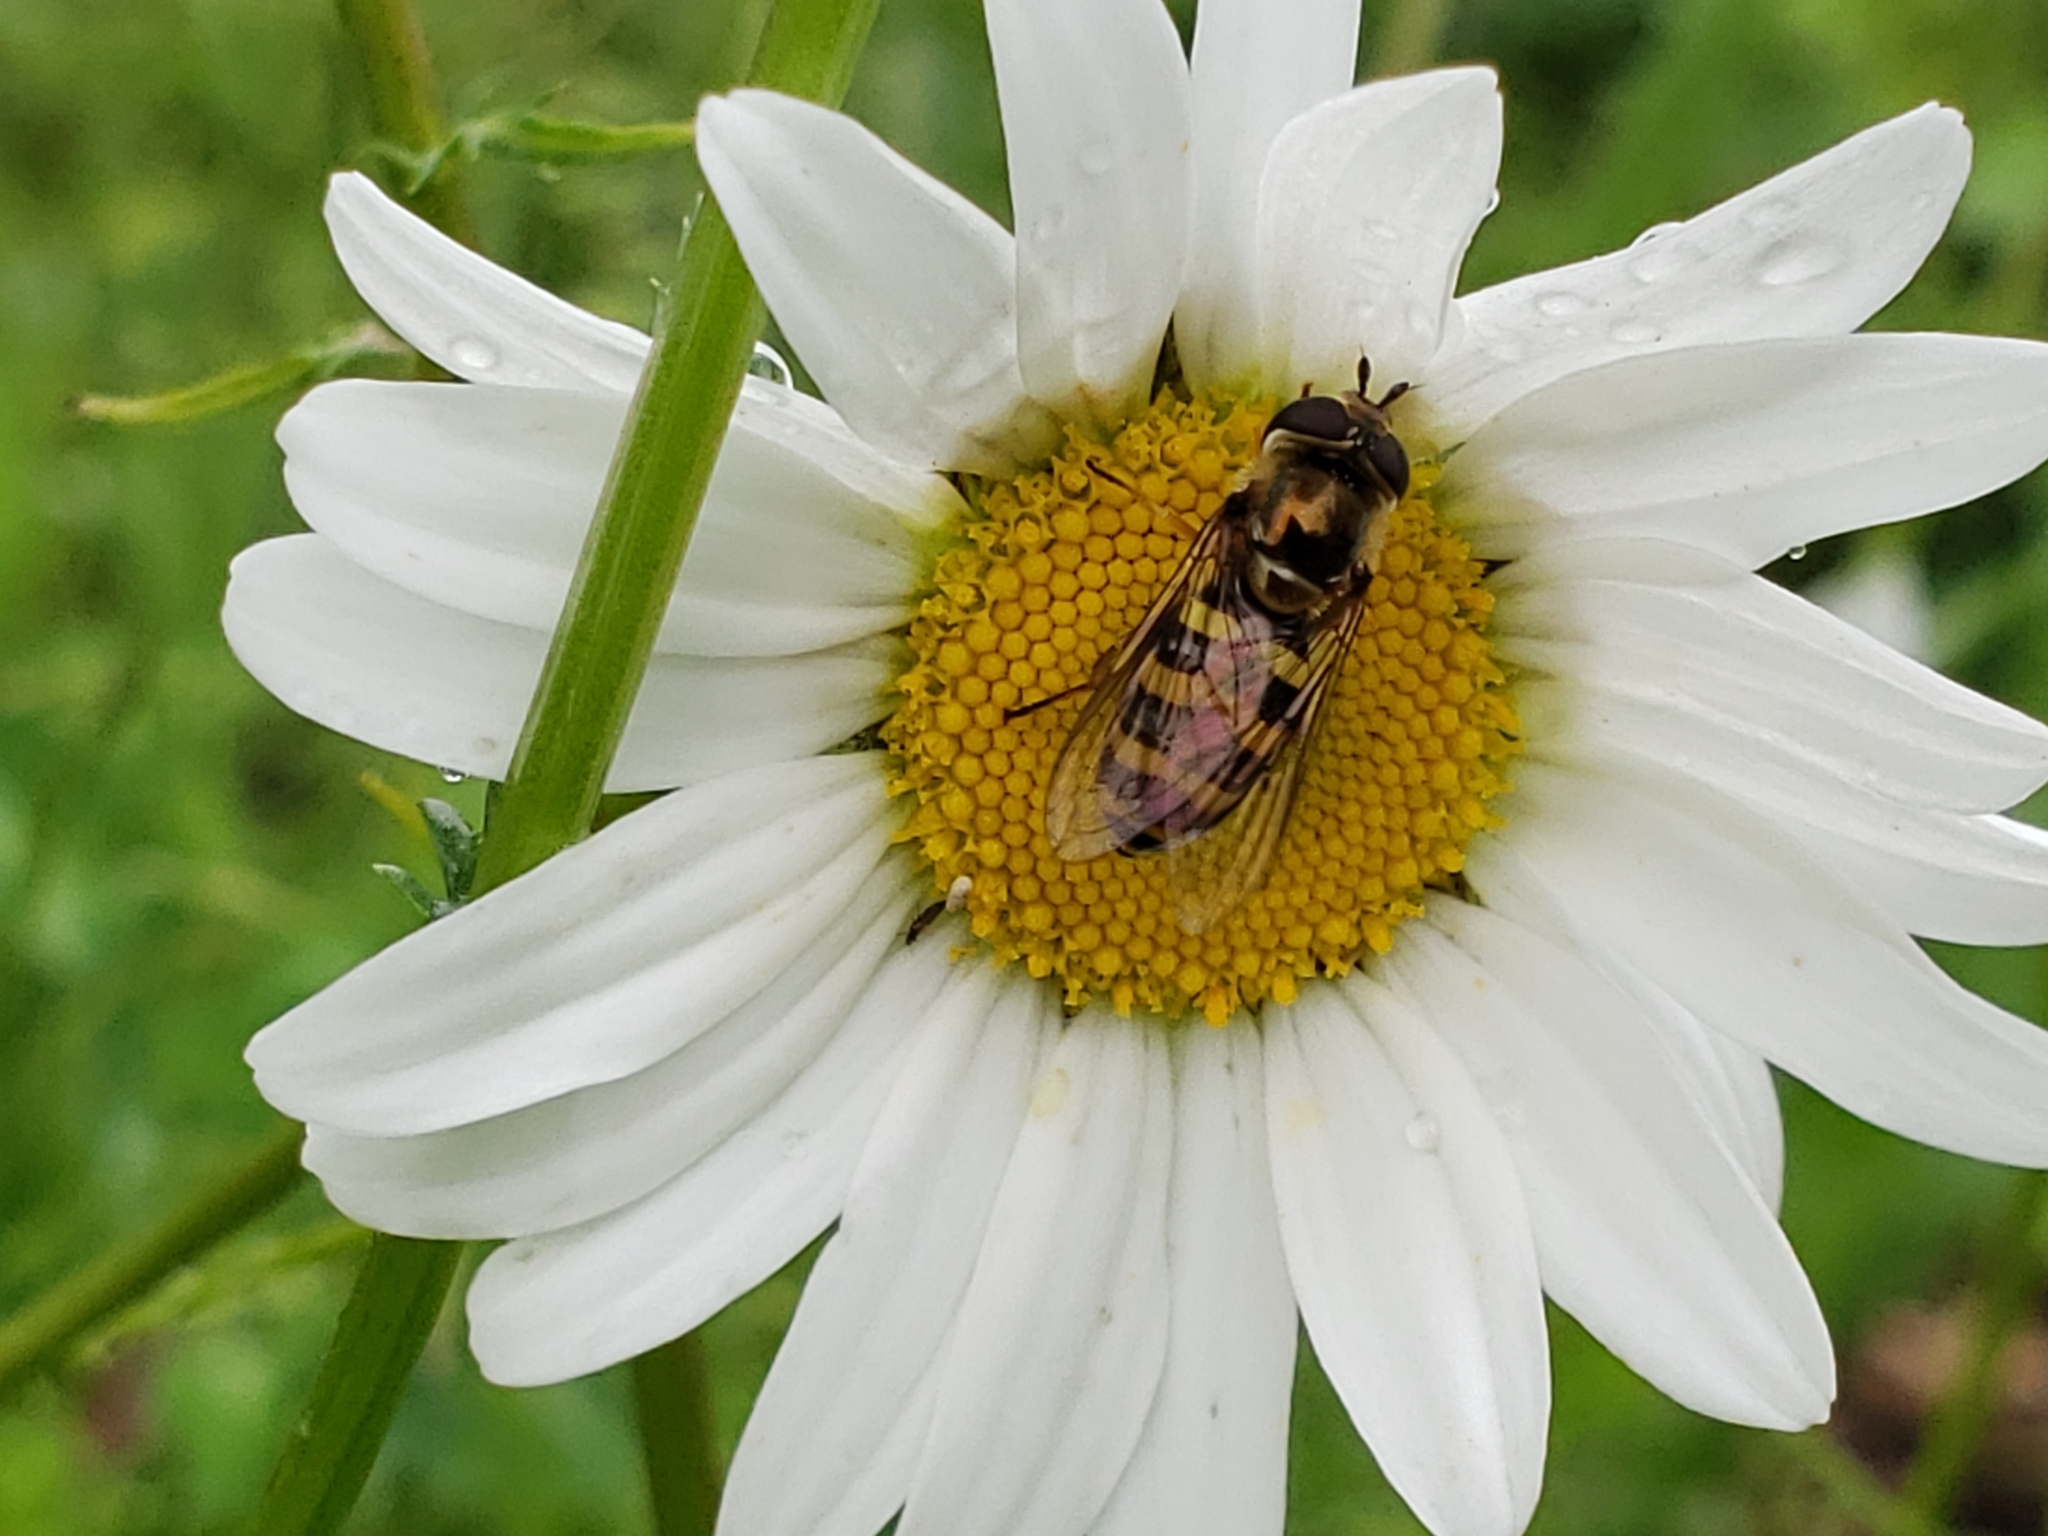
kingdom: Animalia
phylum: Arthropoda
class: Insecta
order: Diptera
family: Syrphidae
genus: Eupeodes
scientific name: Eupeodes fumipennis
